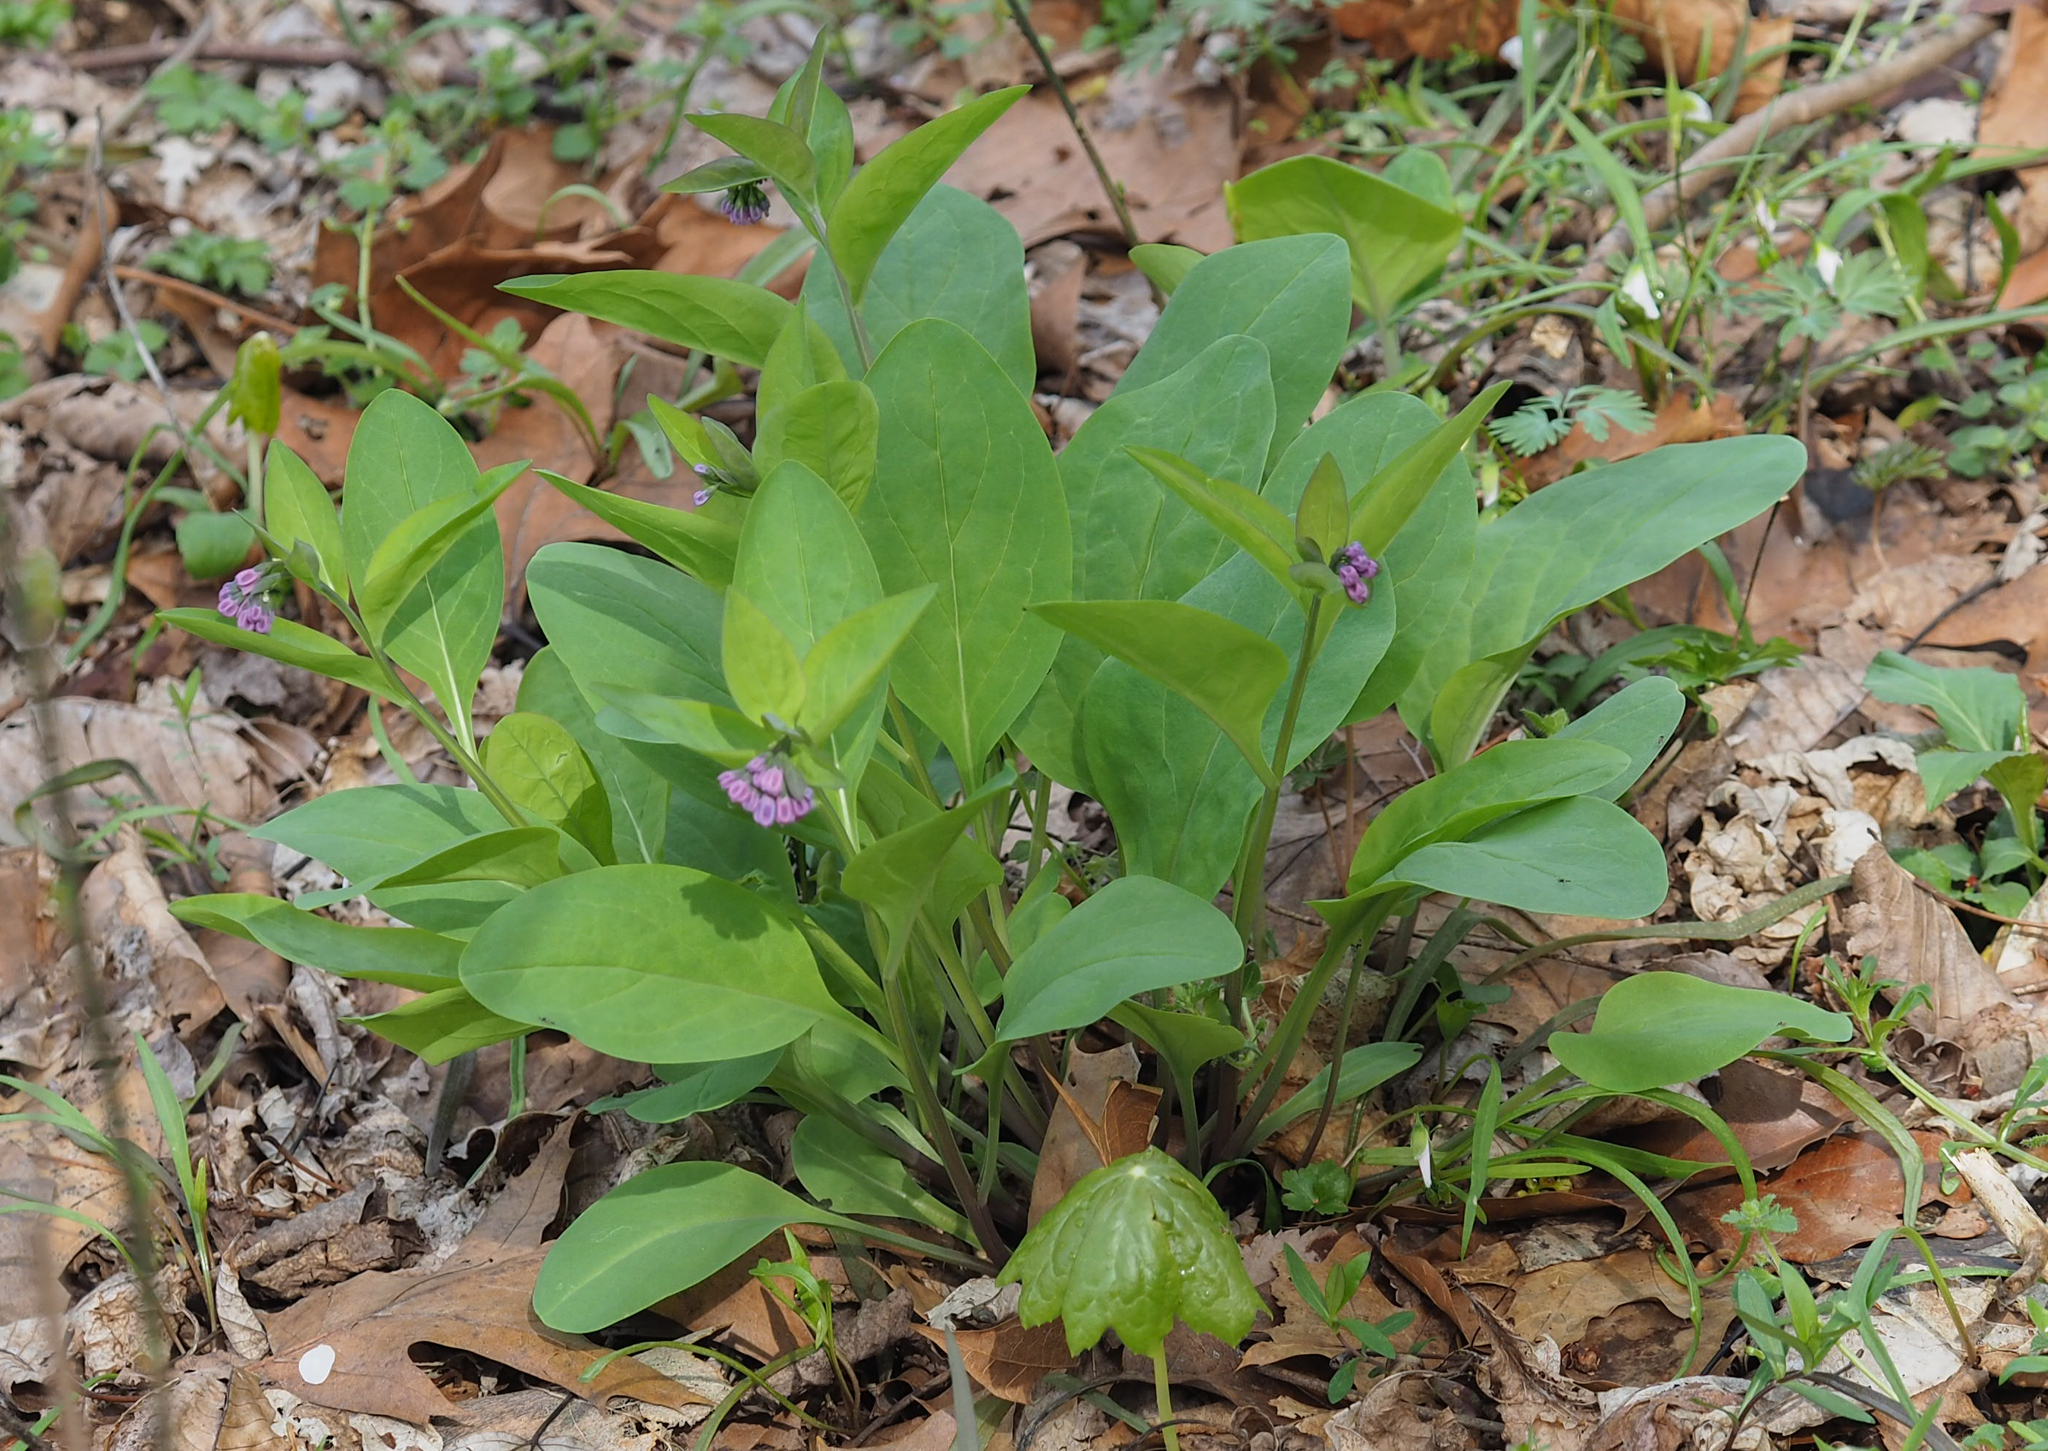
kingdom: Plantae
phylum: Tracheophyta
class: Magnoliopsida
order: Boraginales
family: Boraginaceae
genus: Mertensia
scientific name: Mertensia virginica
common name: Virginia bluebells
